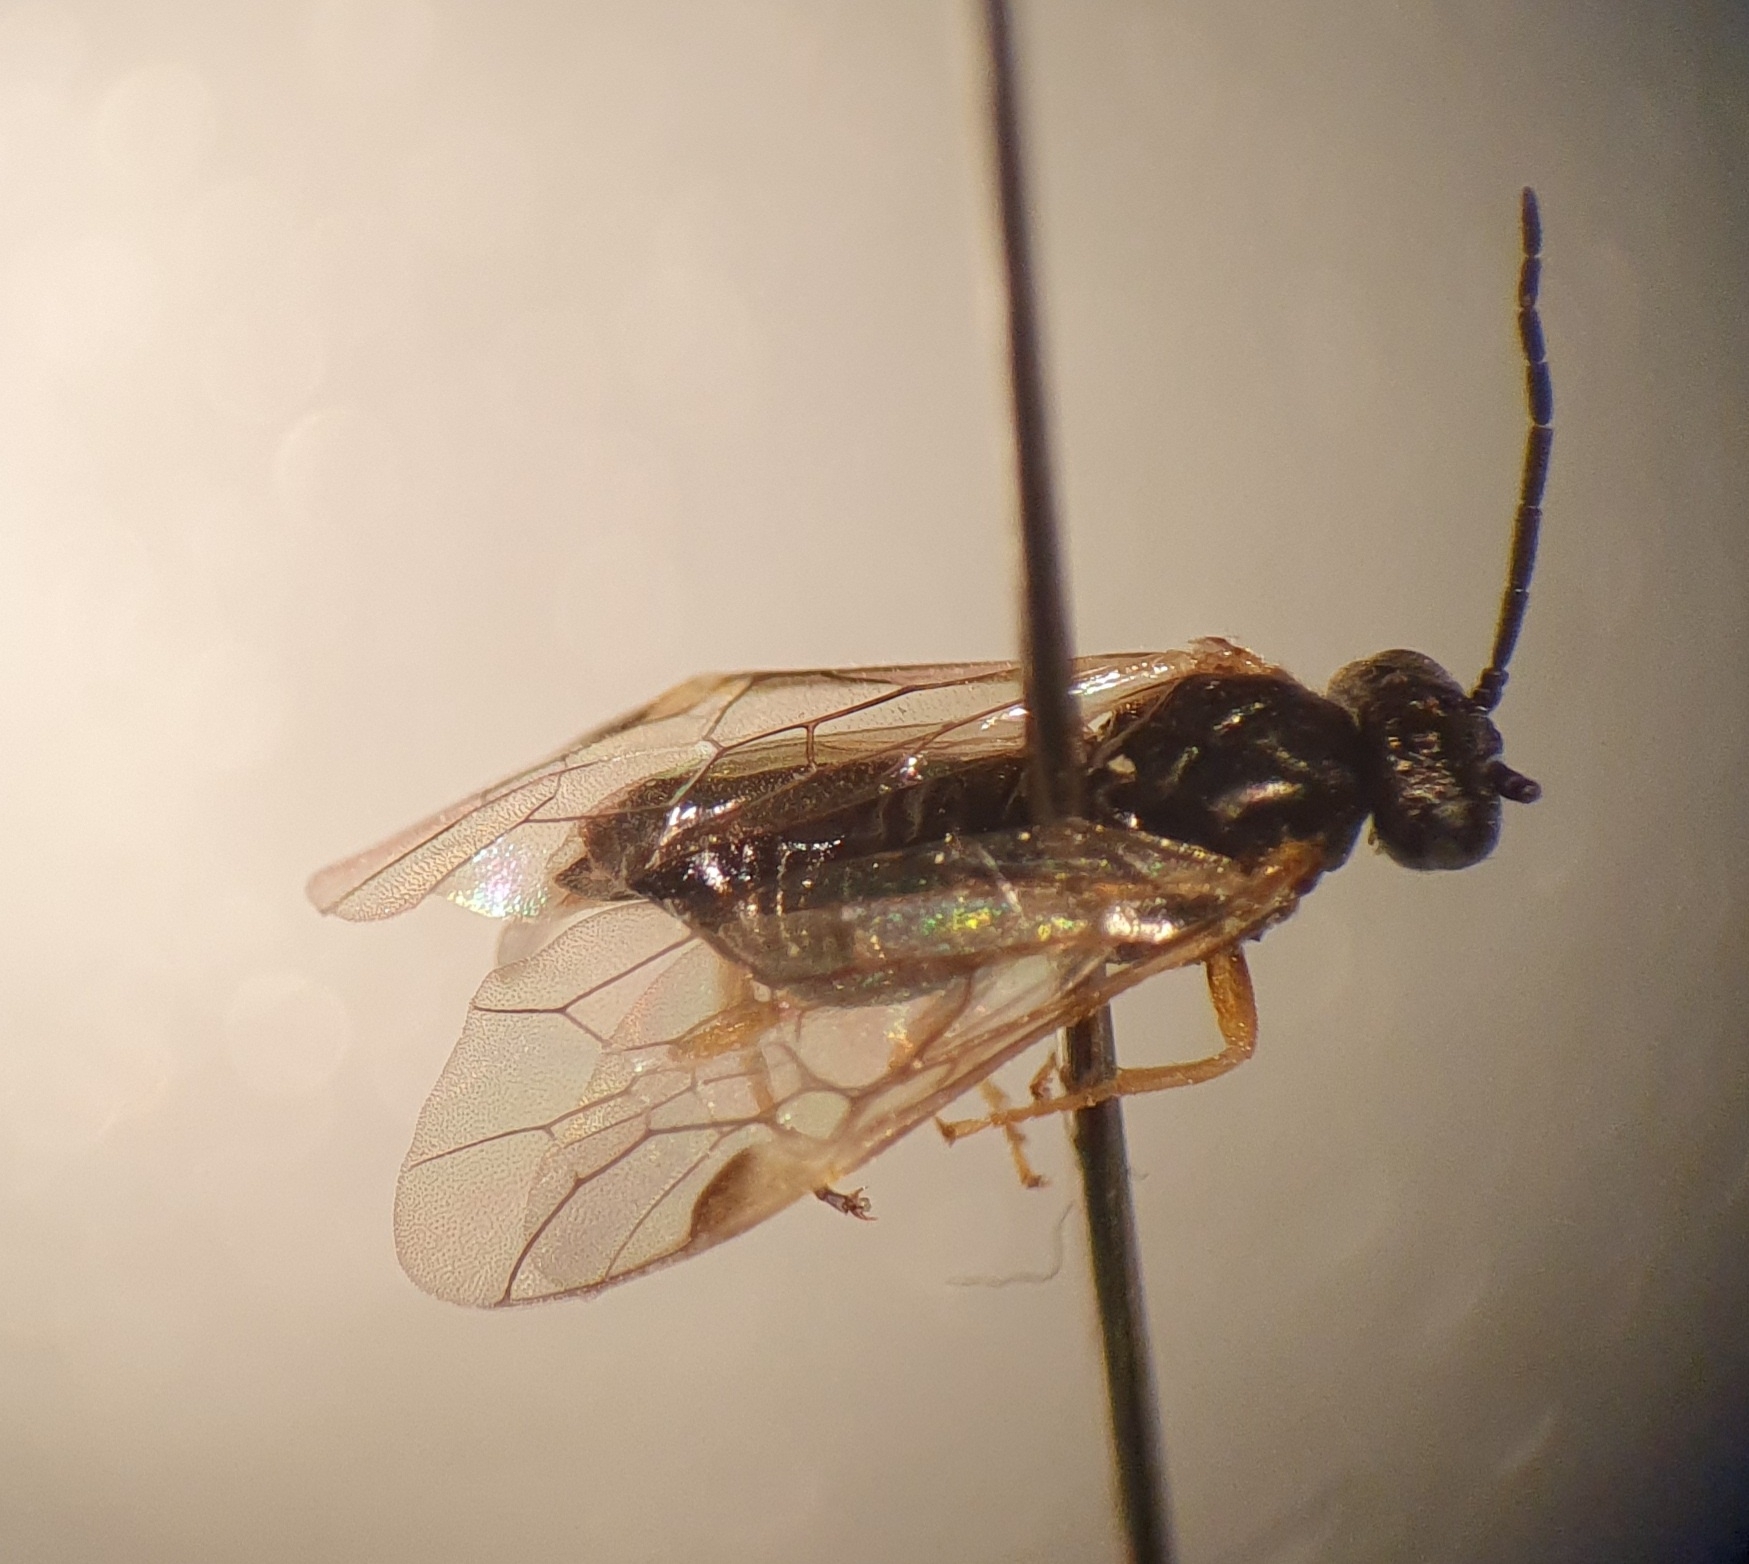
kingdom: Animalia
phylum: Arthropoda
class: Insecta
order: Hymenoptera
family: Tenthredinidae
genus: Pontania
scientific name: Pontania proxima
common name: Common sawfly
